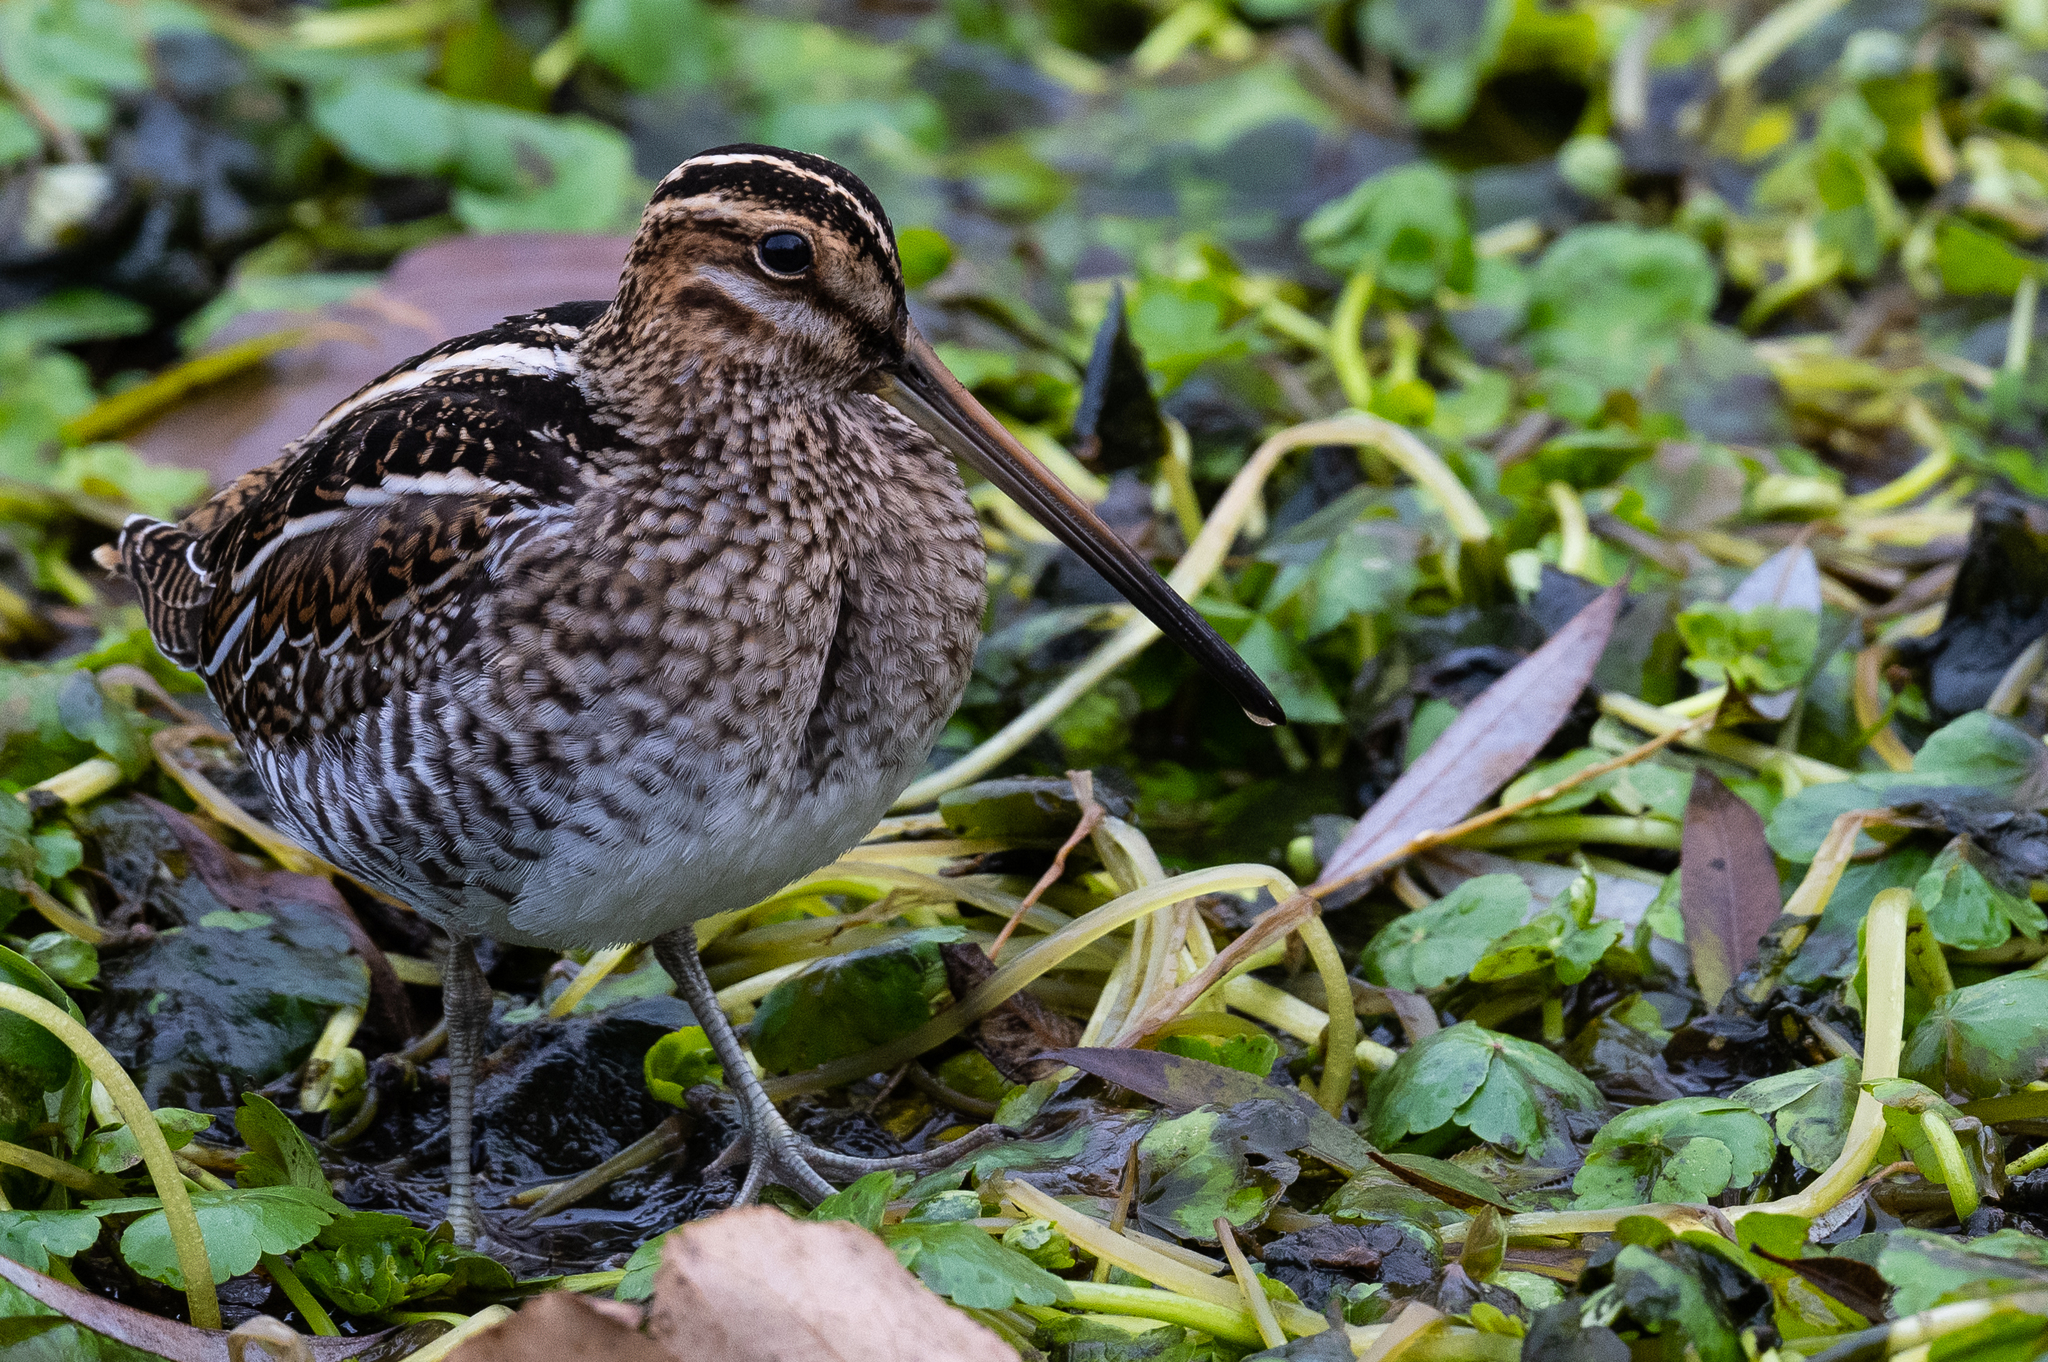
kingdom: Animalia
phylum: Chordata
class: Aves
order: Charadriiformes
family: Scolopacidae
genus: Gallinago
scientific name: Gallinago delicata
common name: Wilson's snipe
